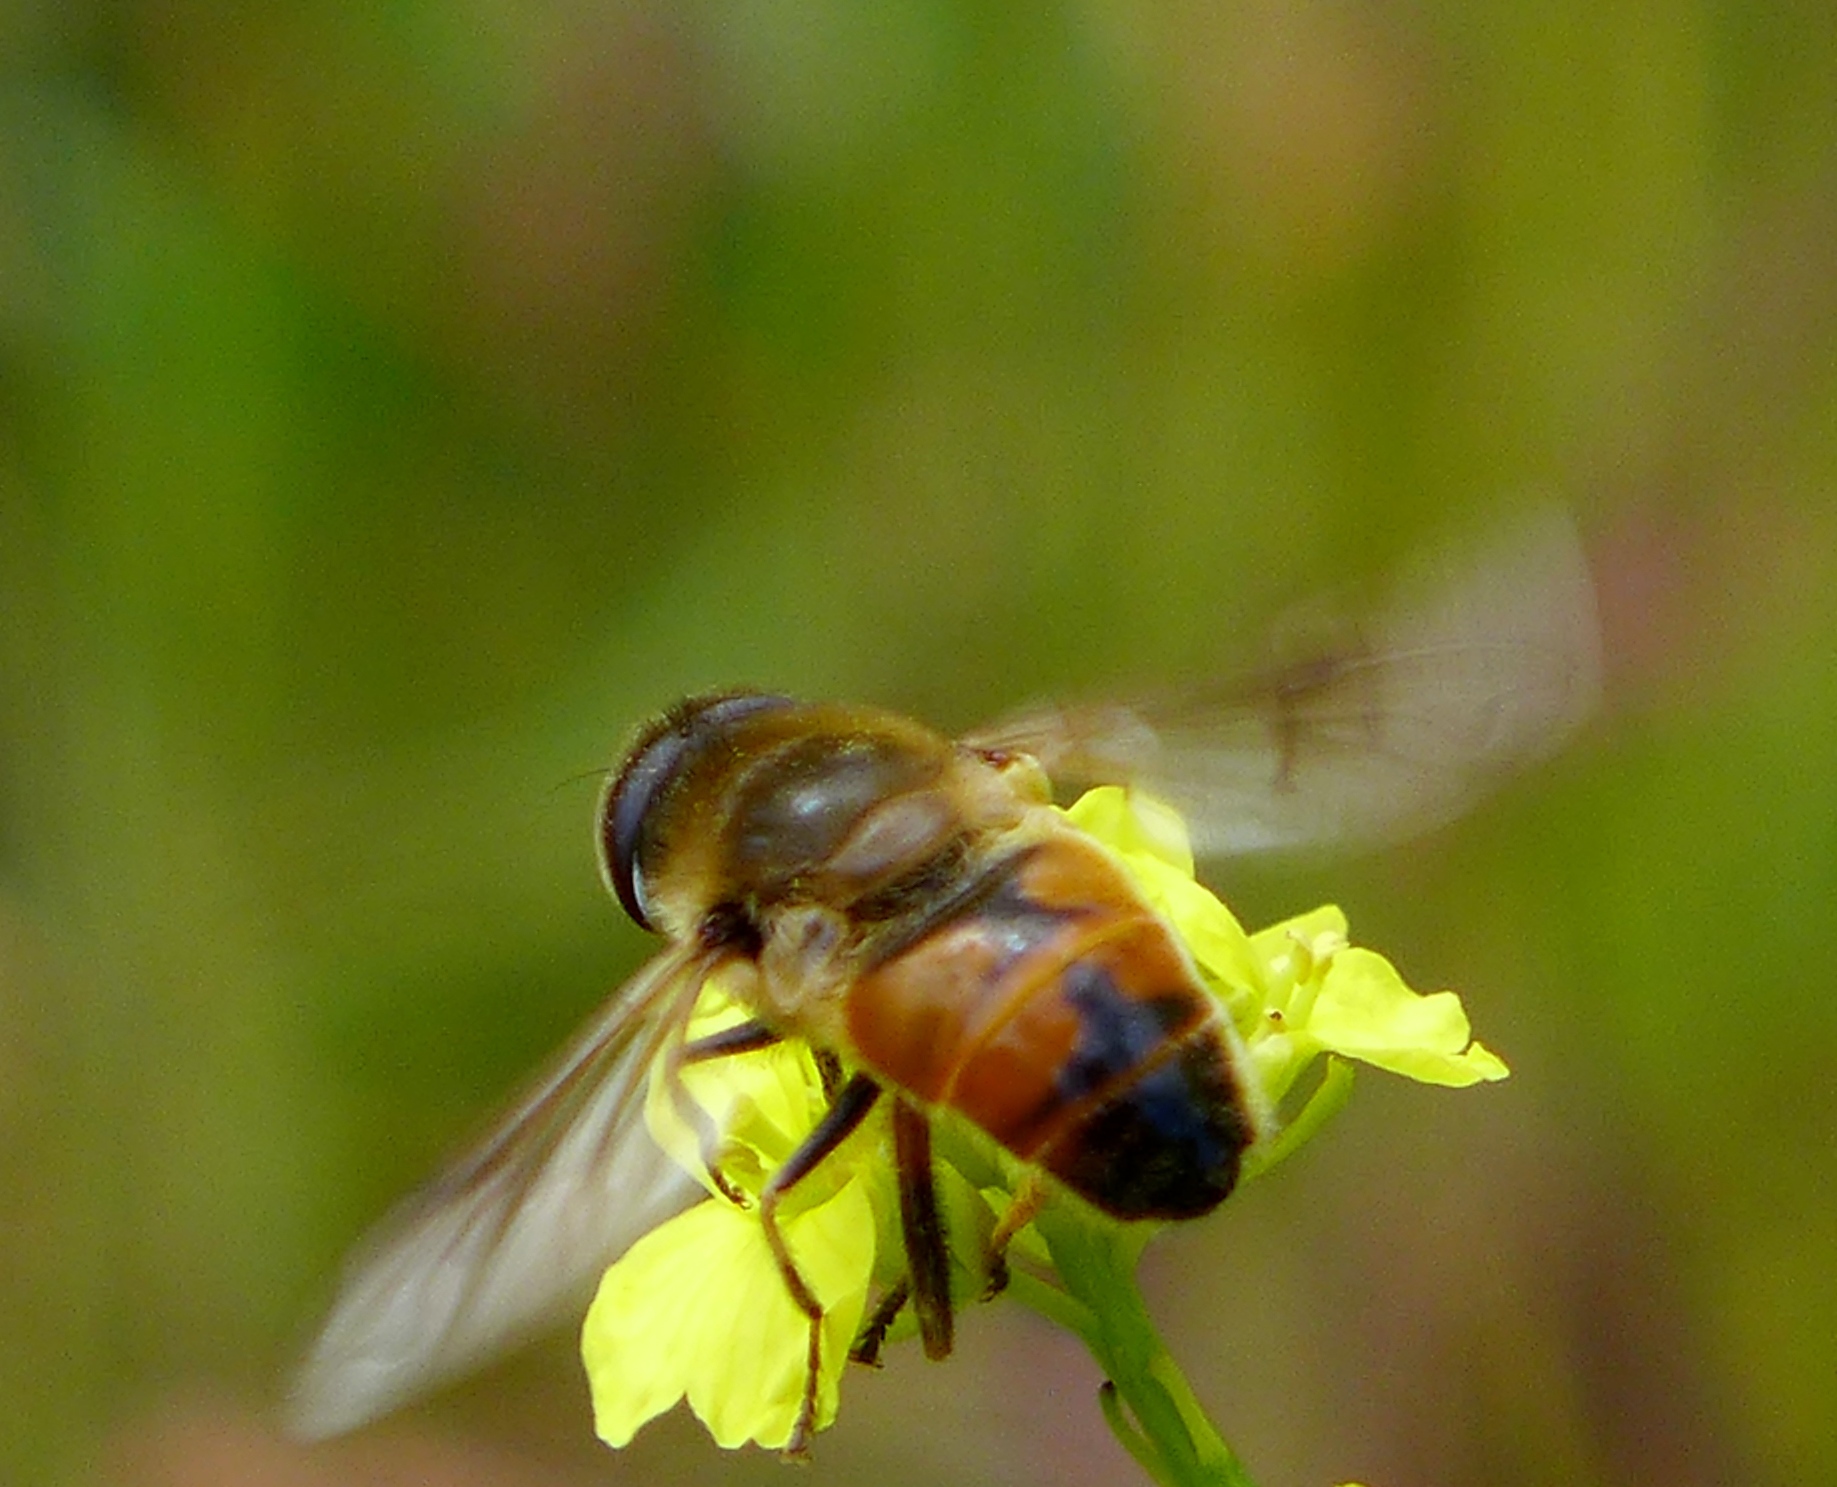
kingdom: Animalia
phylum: Arthropoda
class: Insecta
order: Diptera
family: Syrphidae
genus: Eristalis
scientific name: Eristalis tenax
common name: Drone fly
